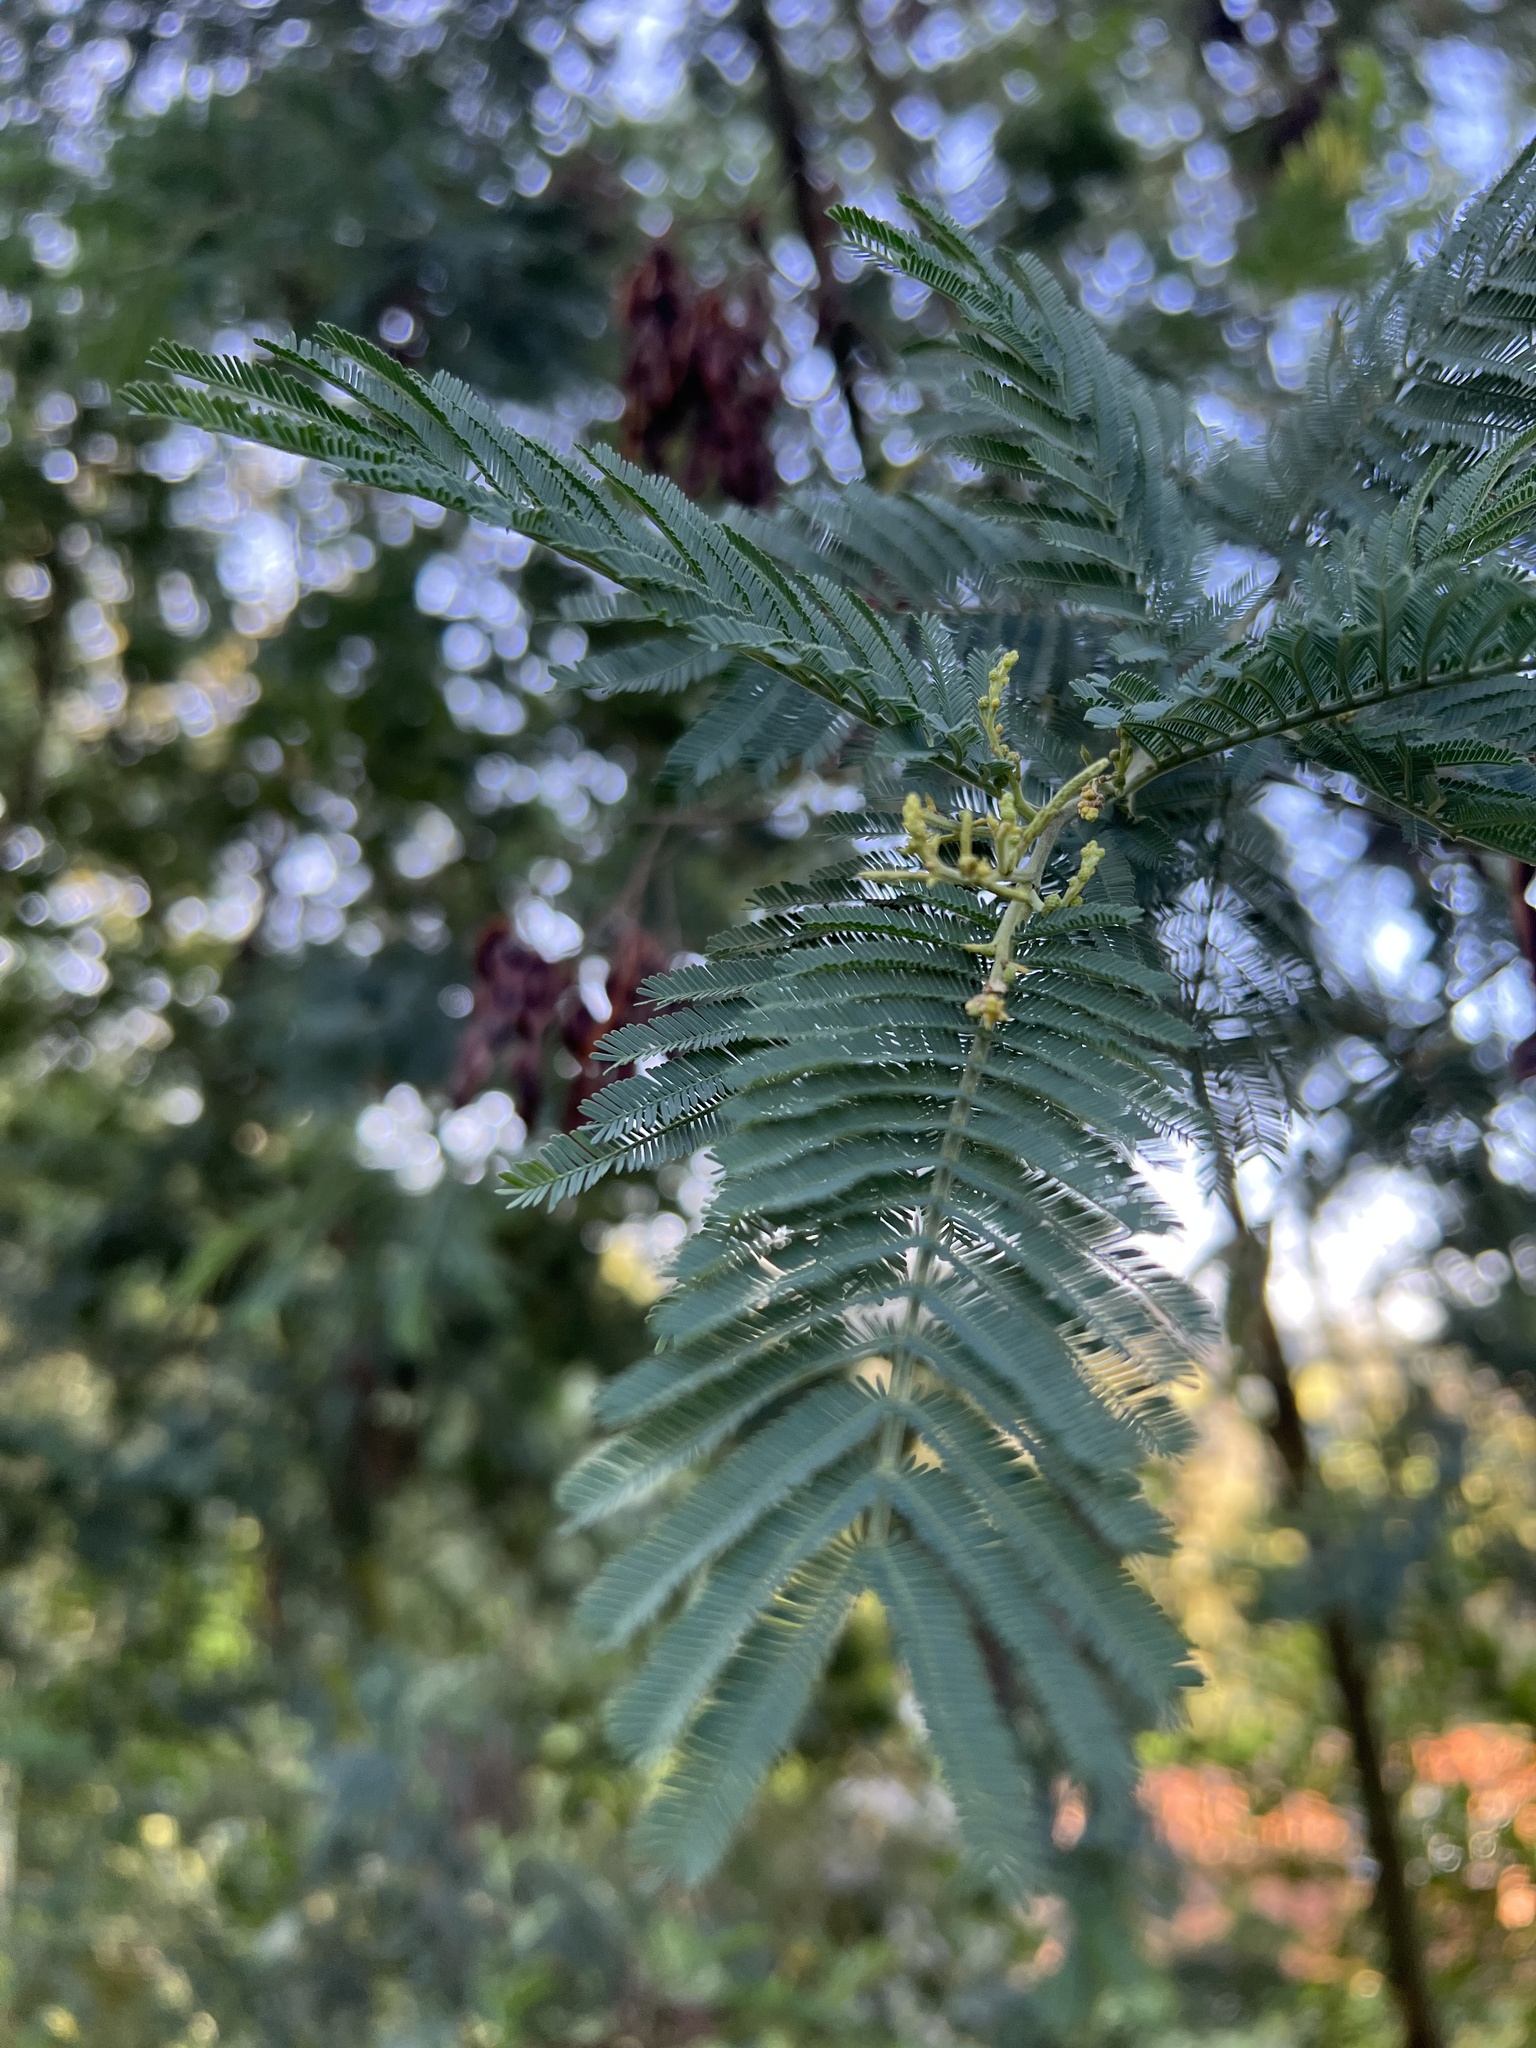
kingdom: Plantae
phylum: Tracheophyta
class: Magnoliopsida
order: Fabales
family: Fabaceae
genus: Acacia
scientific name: Acacia dealbata
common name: Silver wattle
